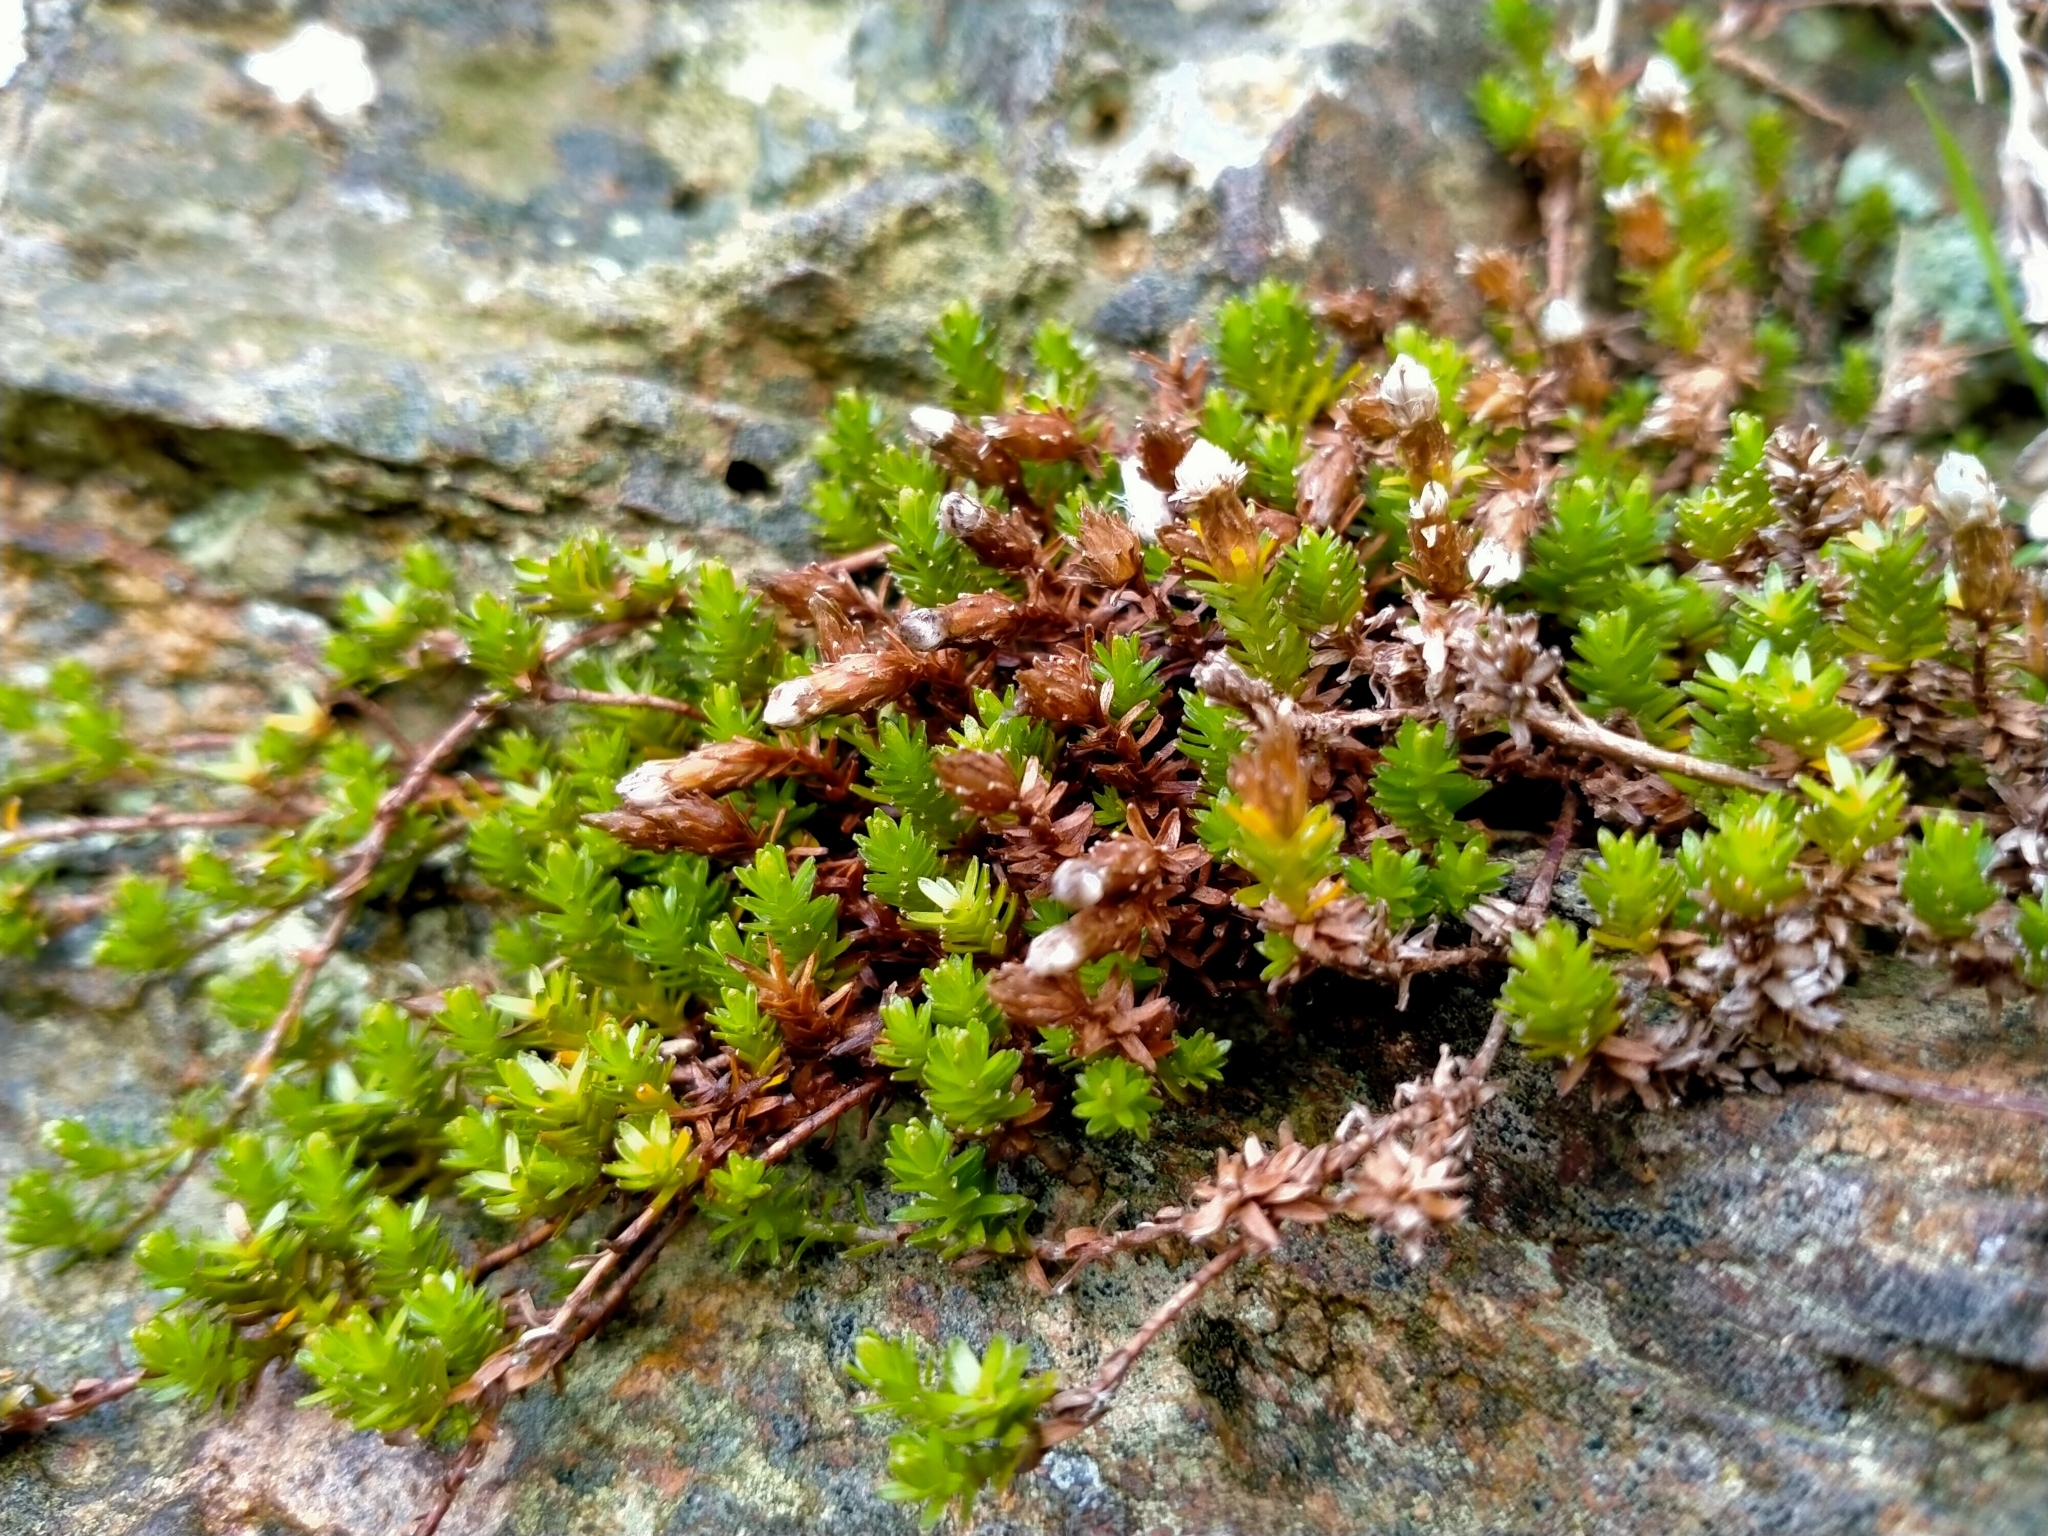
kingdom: Plantae
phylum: Tracheophyta
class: Magnoliopsida
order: Asterales
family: Asteraceae
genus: Raoulia
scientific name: Raoulia glabra
